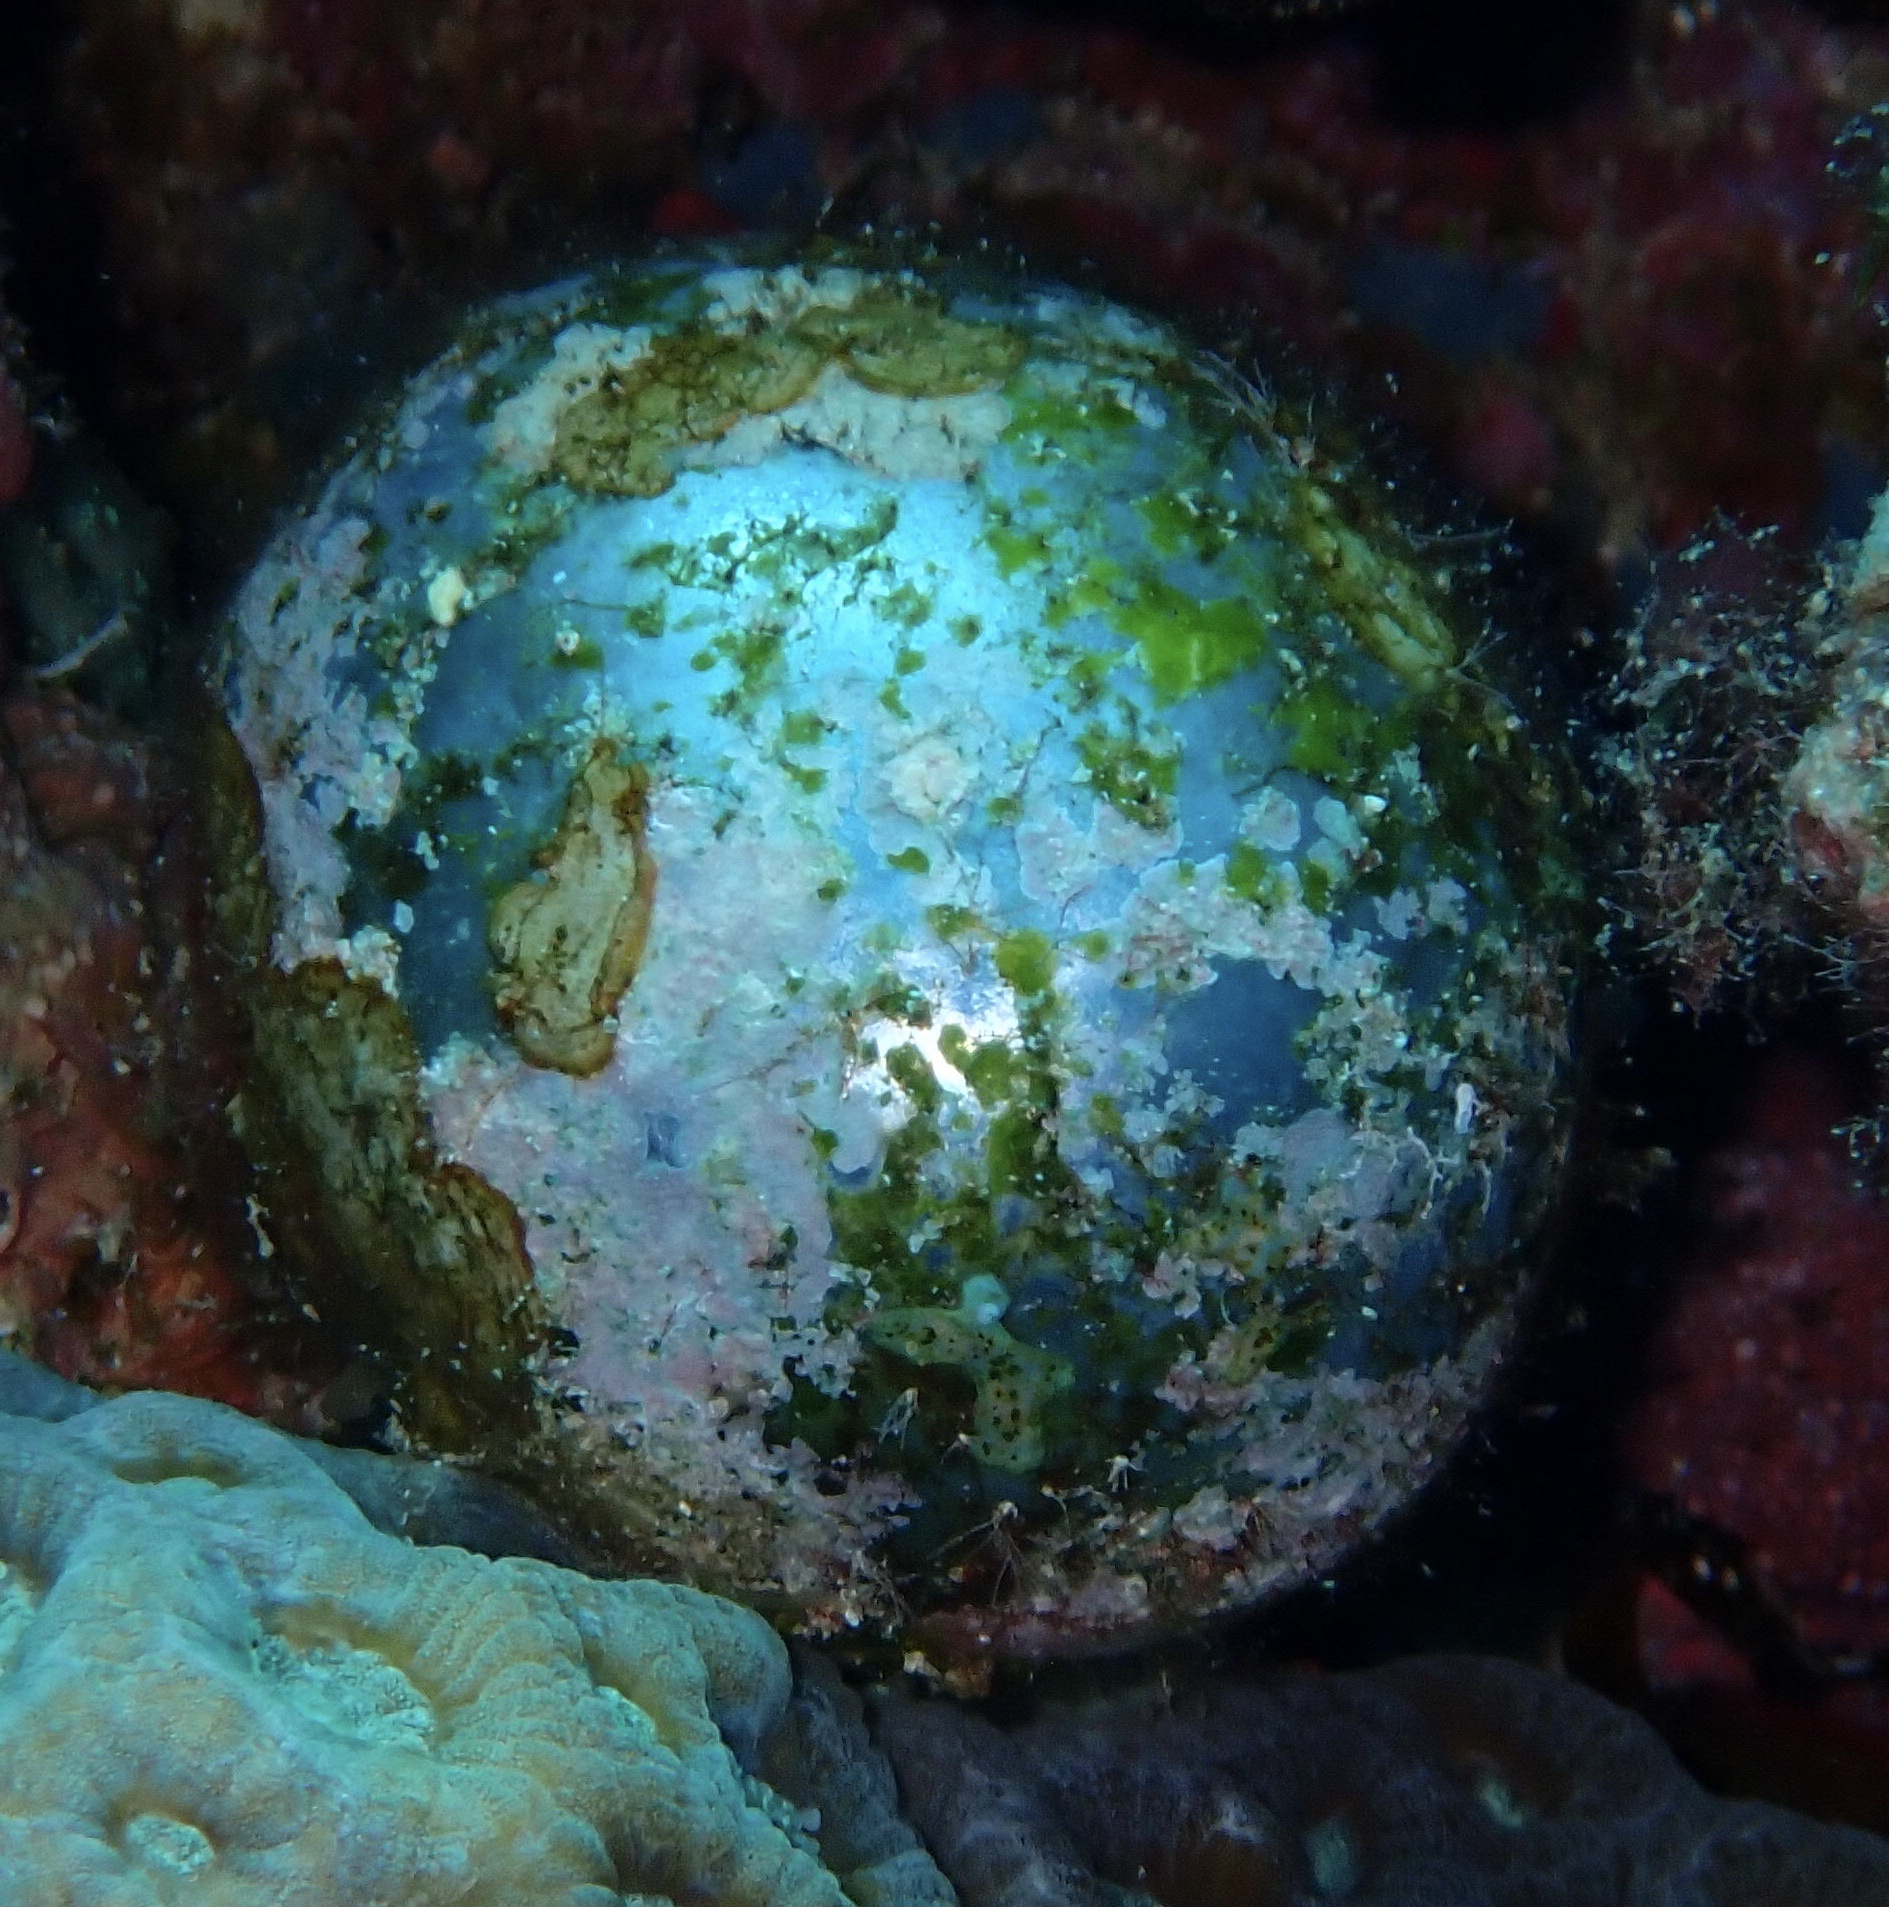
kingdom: Plantae
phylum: Chlorophyta
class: Ulvophyceae
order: Siphonocladales
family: Valoniaceae
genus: Valonia
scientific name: Valonia ventricosa
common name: Sea pearl
